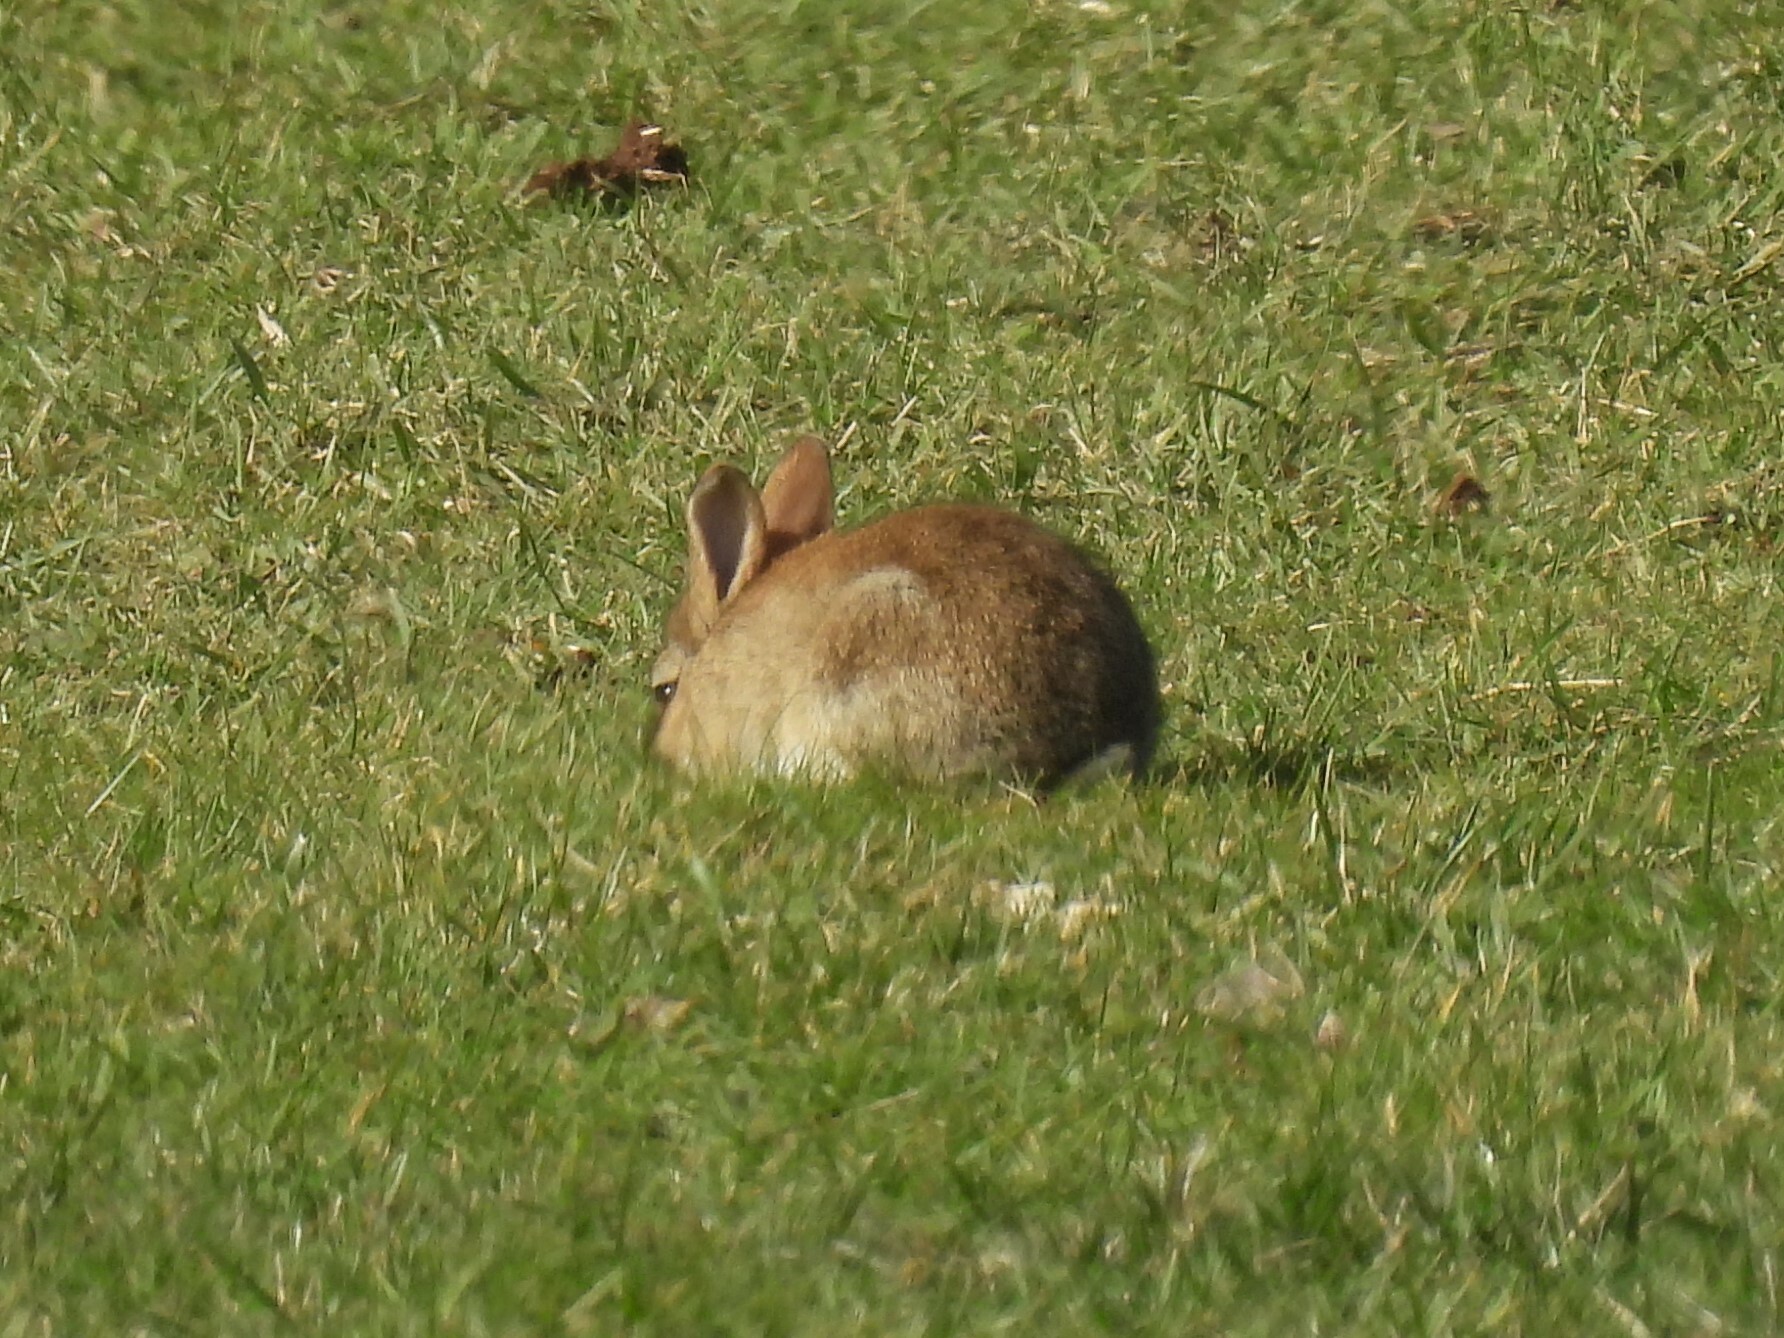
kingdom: Animalia
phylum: Chordata
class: Mammalia
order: Lagomorpha
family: Leporidae
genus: Oryctolagus
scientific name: Oryctolagus cuniculus
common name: European rabbit
